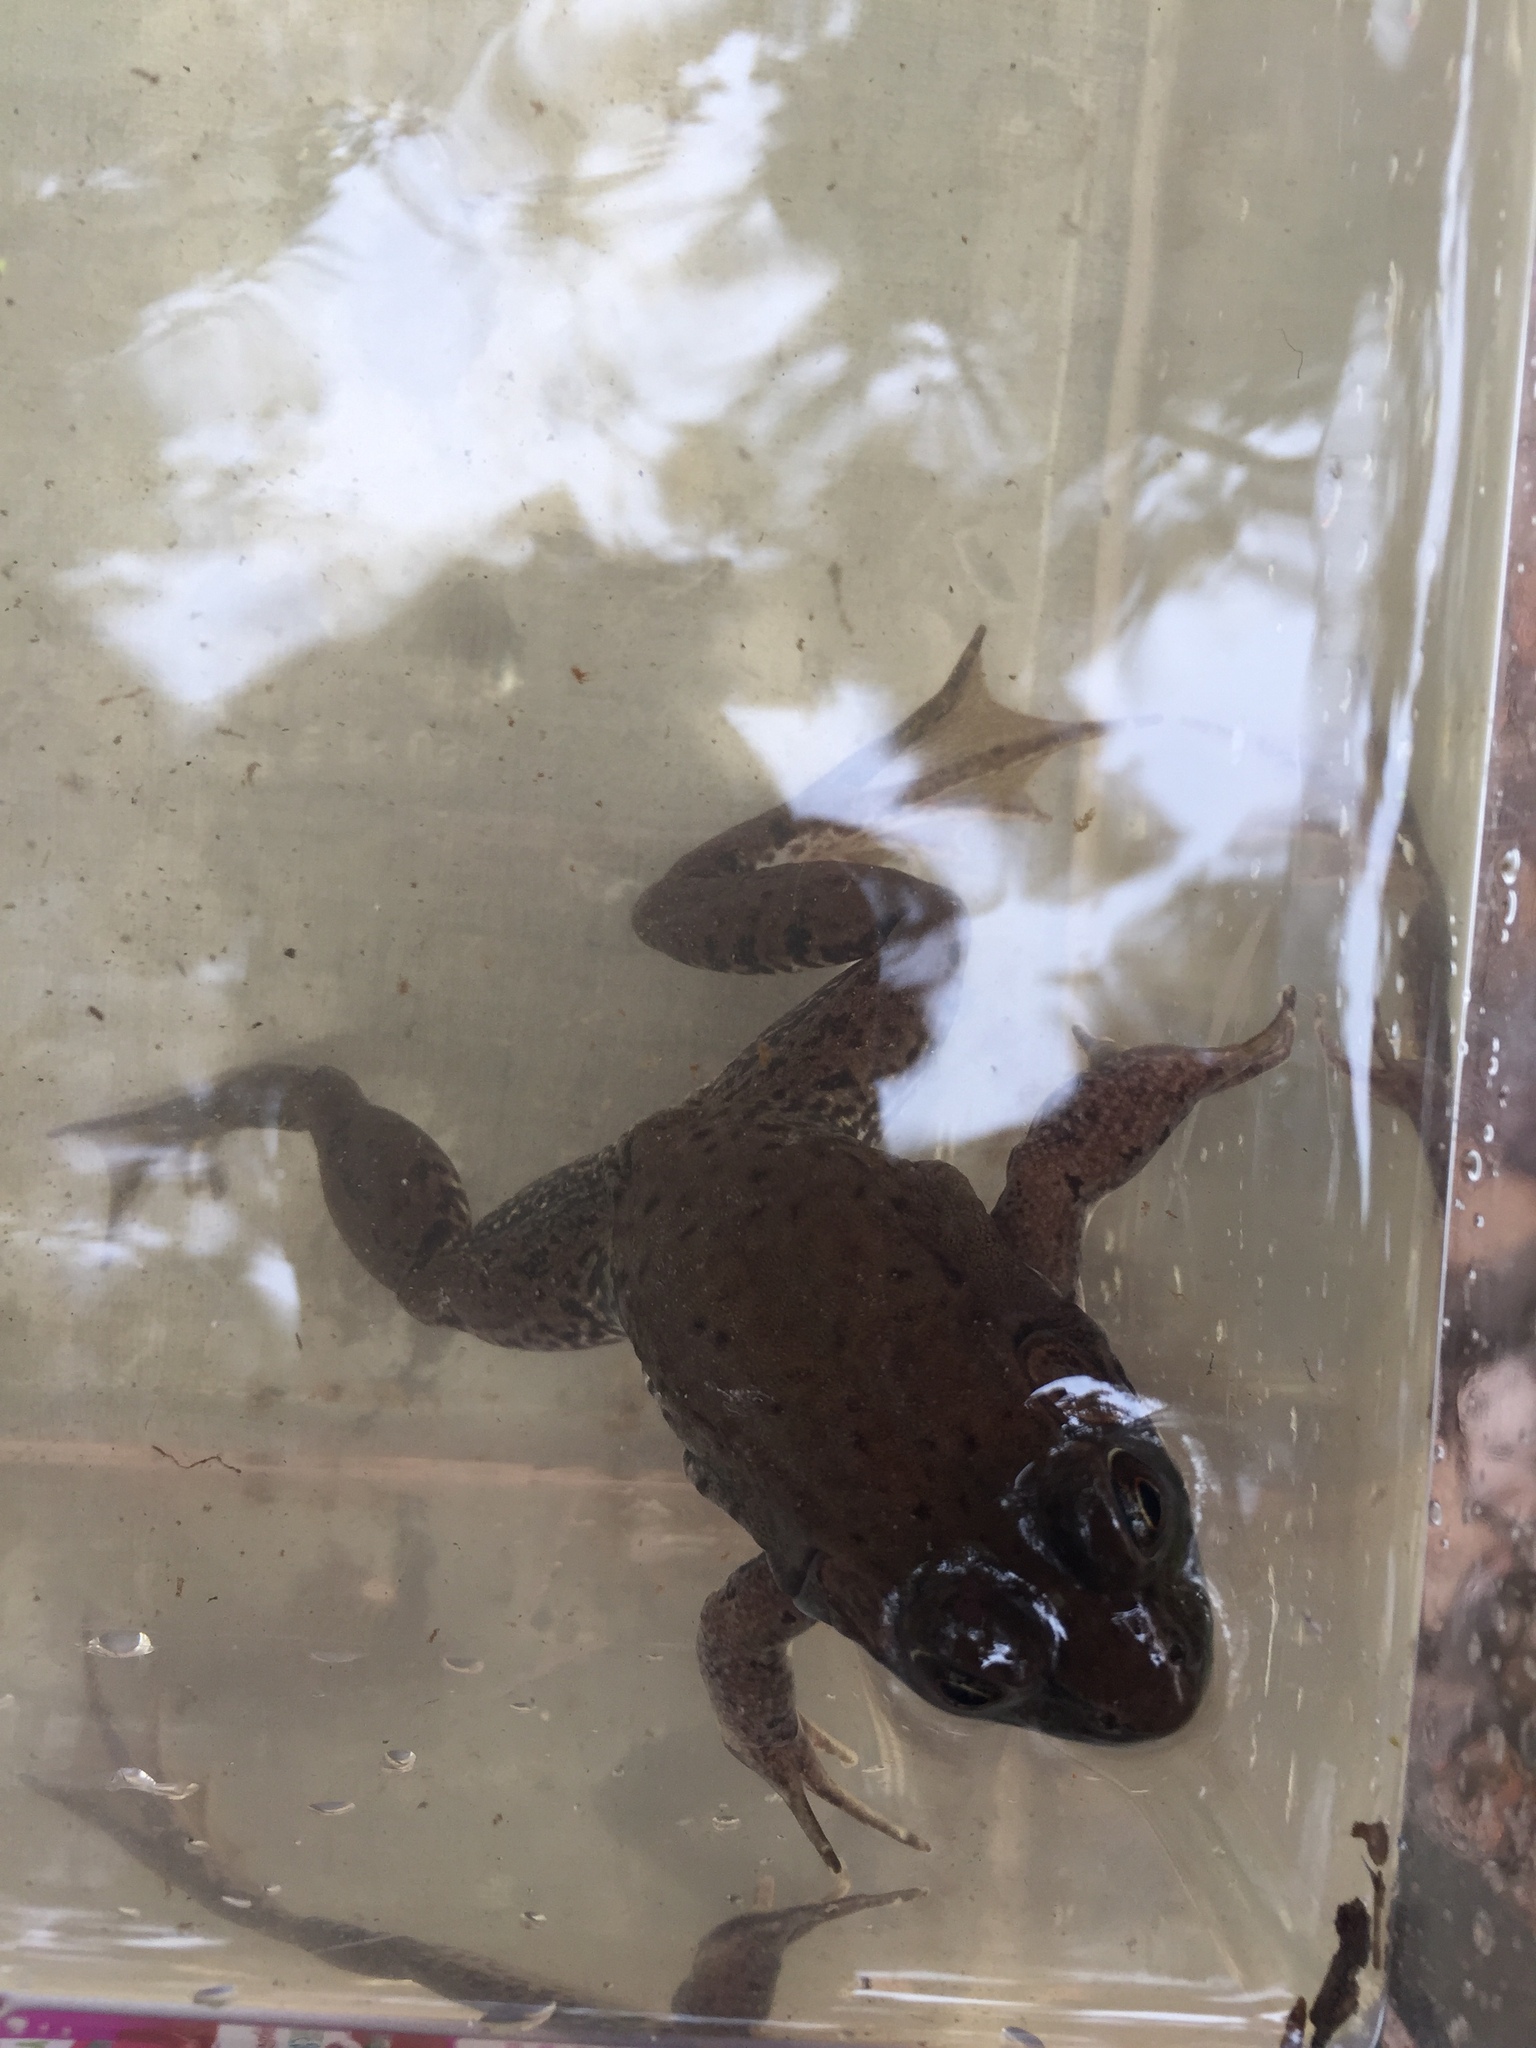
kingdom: Animalia
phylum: Chordata
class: Amphibia
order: Anura
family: Ranidae
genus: Lithobates
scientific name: Lithobates clamitans
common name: Green frog
